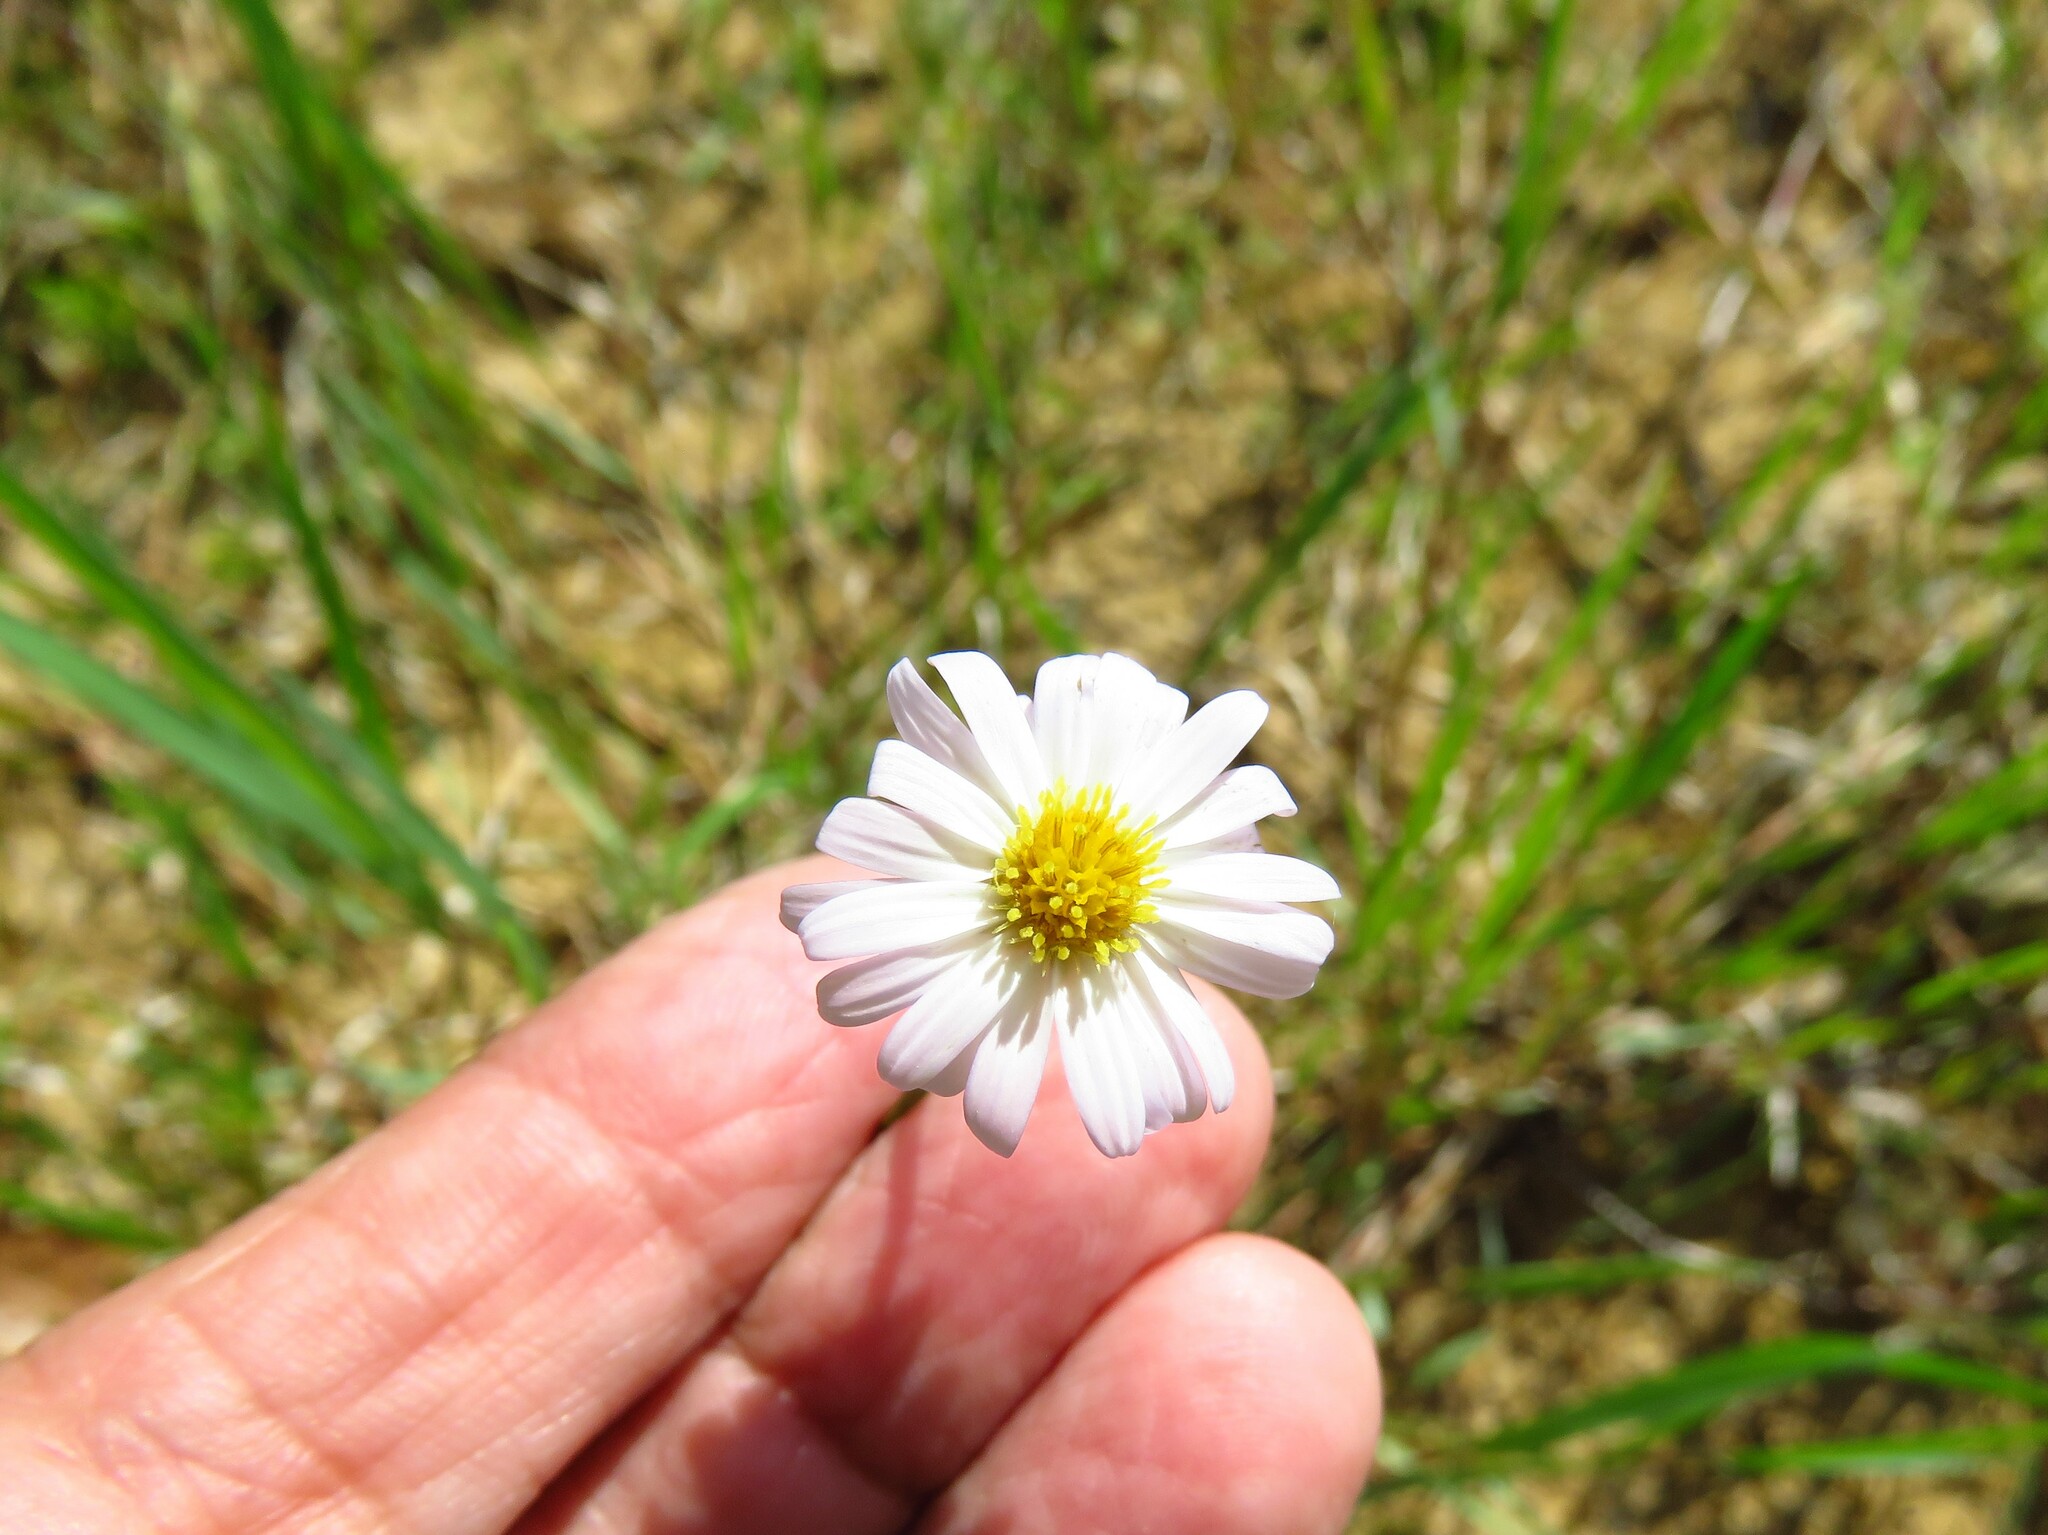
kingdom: Plantae
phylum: Tracheophyta
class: Magnoliopsida
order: Asterales
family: Asteraceae
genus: Symphyotrichum
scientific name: Symphyotrichum divaricatum
